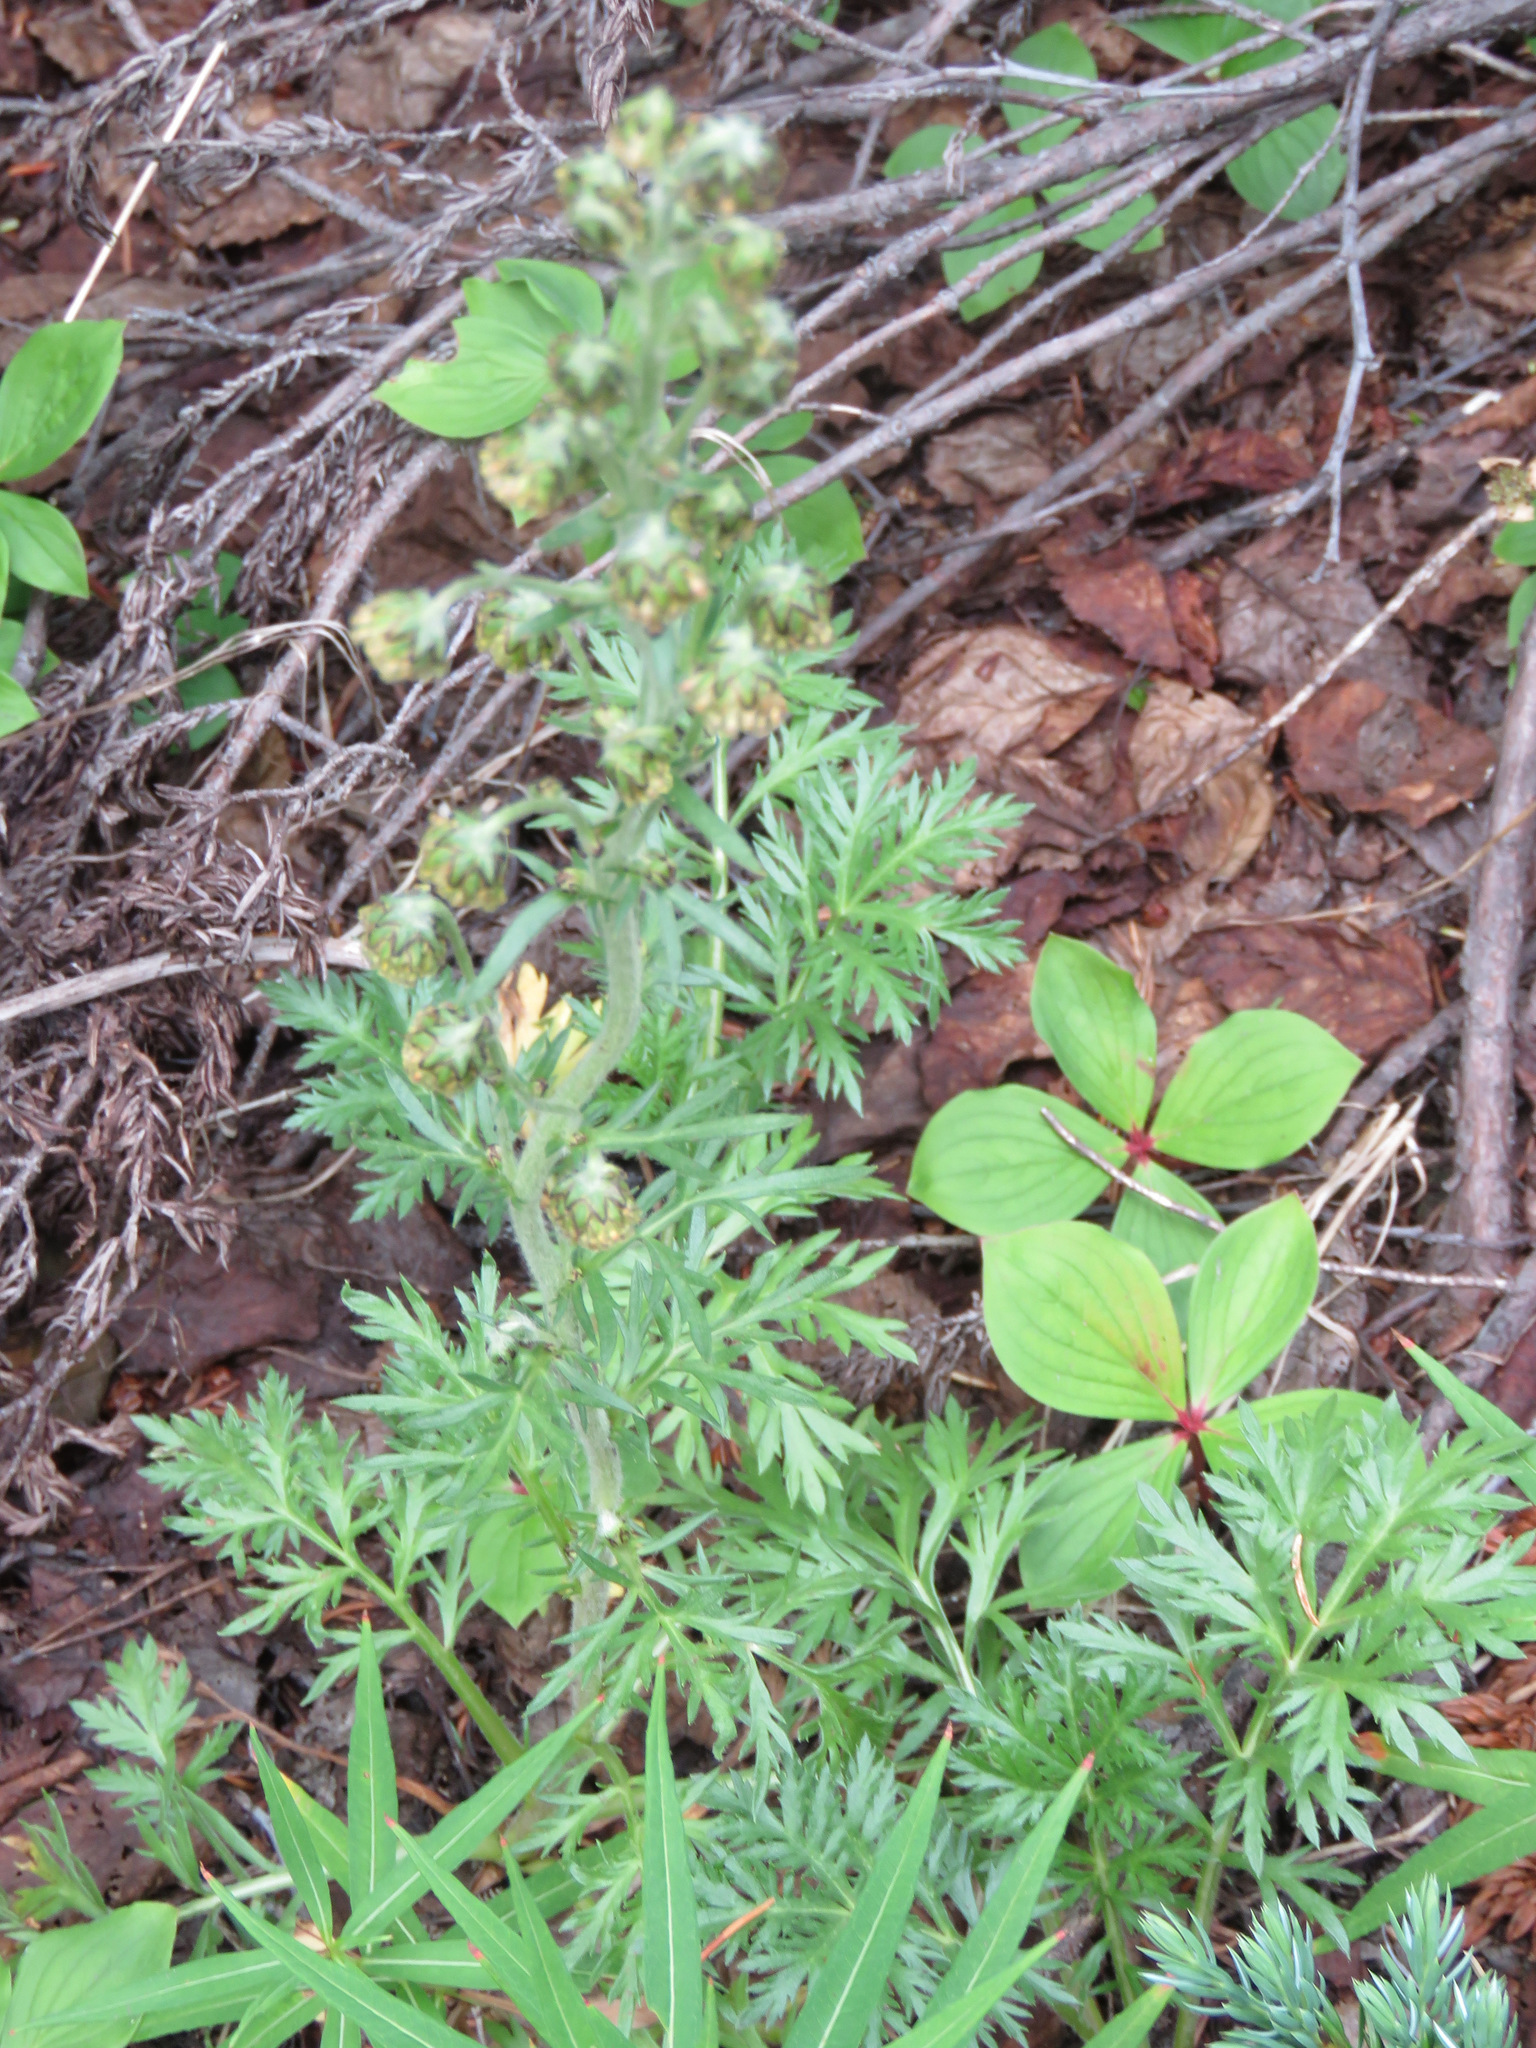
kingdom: Plantae
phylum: Tracheophyta
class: Magnoliopsida
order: Asterales
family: Asteraceae
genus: Artemisia
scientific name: Artemisia norvegica
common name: Norwegian mugwort
